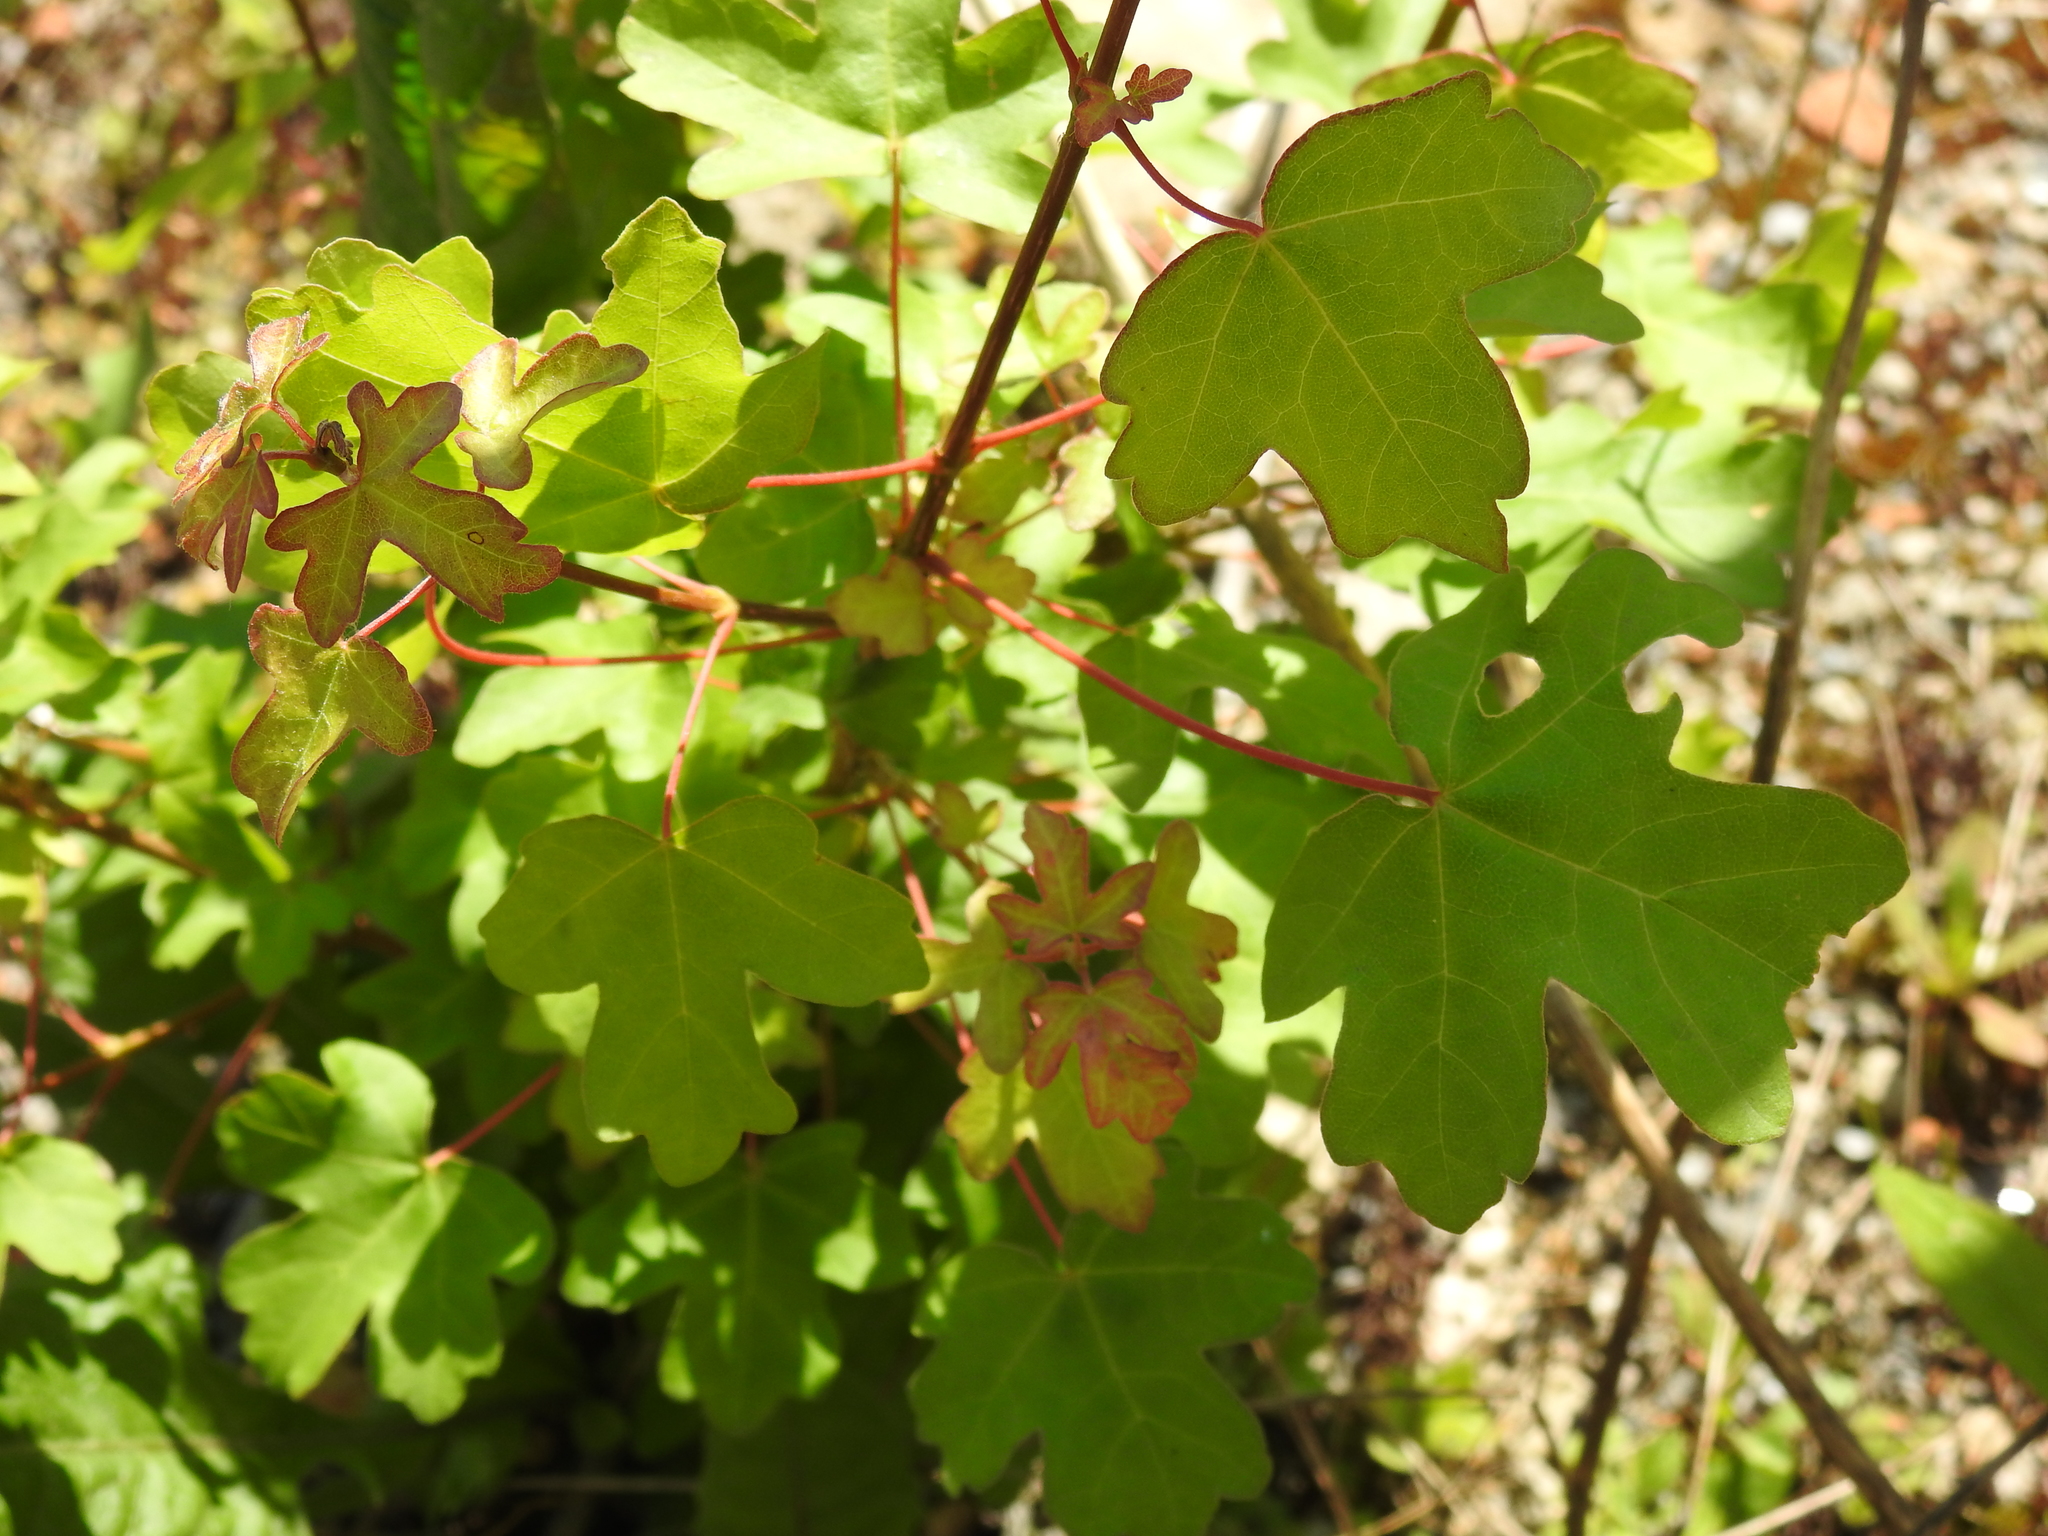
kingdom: Plantae
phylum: Tracheophyta
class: Magnoliopsida
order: Sapindales
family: Sapindaceae
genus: Acer
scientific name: Acer campestre
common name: Field maple
